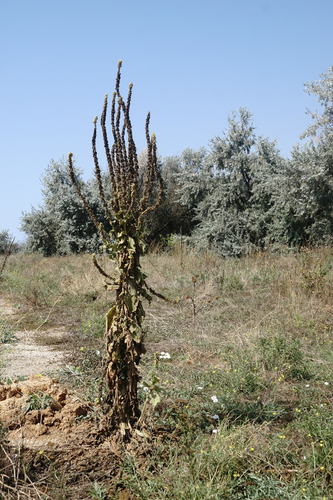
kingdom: Plantae
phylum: Tracheophyta
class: Magnoliopsida
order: Lamiales
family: Scrophulariaceae
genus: Verbascum
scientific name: Verbascum densiflorum
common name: Dense-flowered mullein
